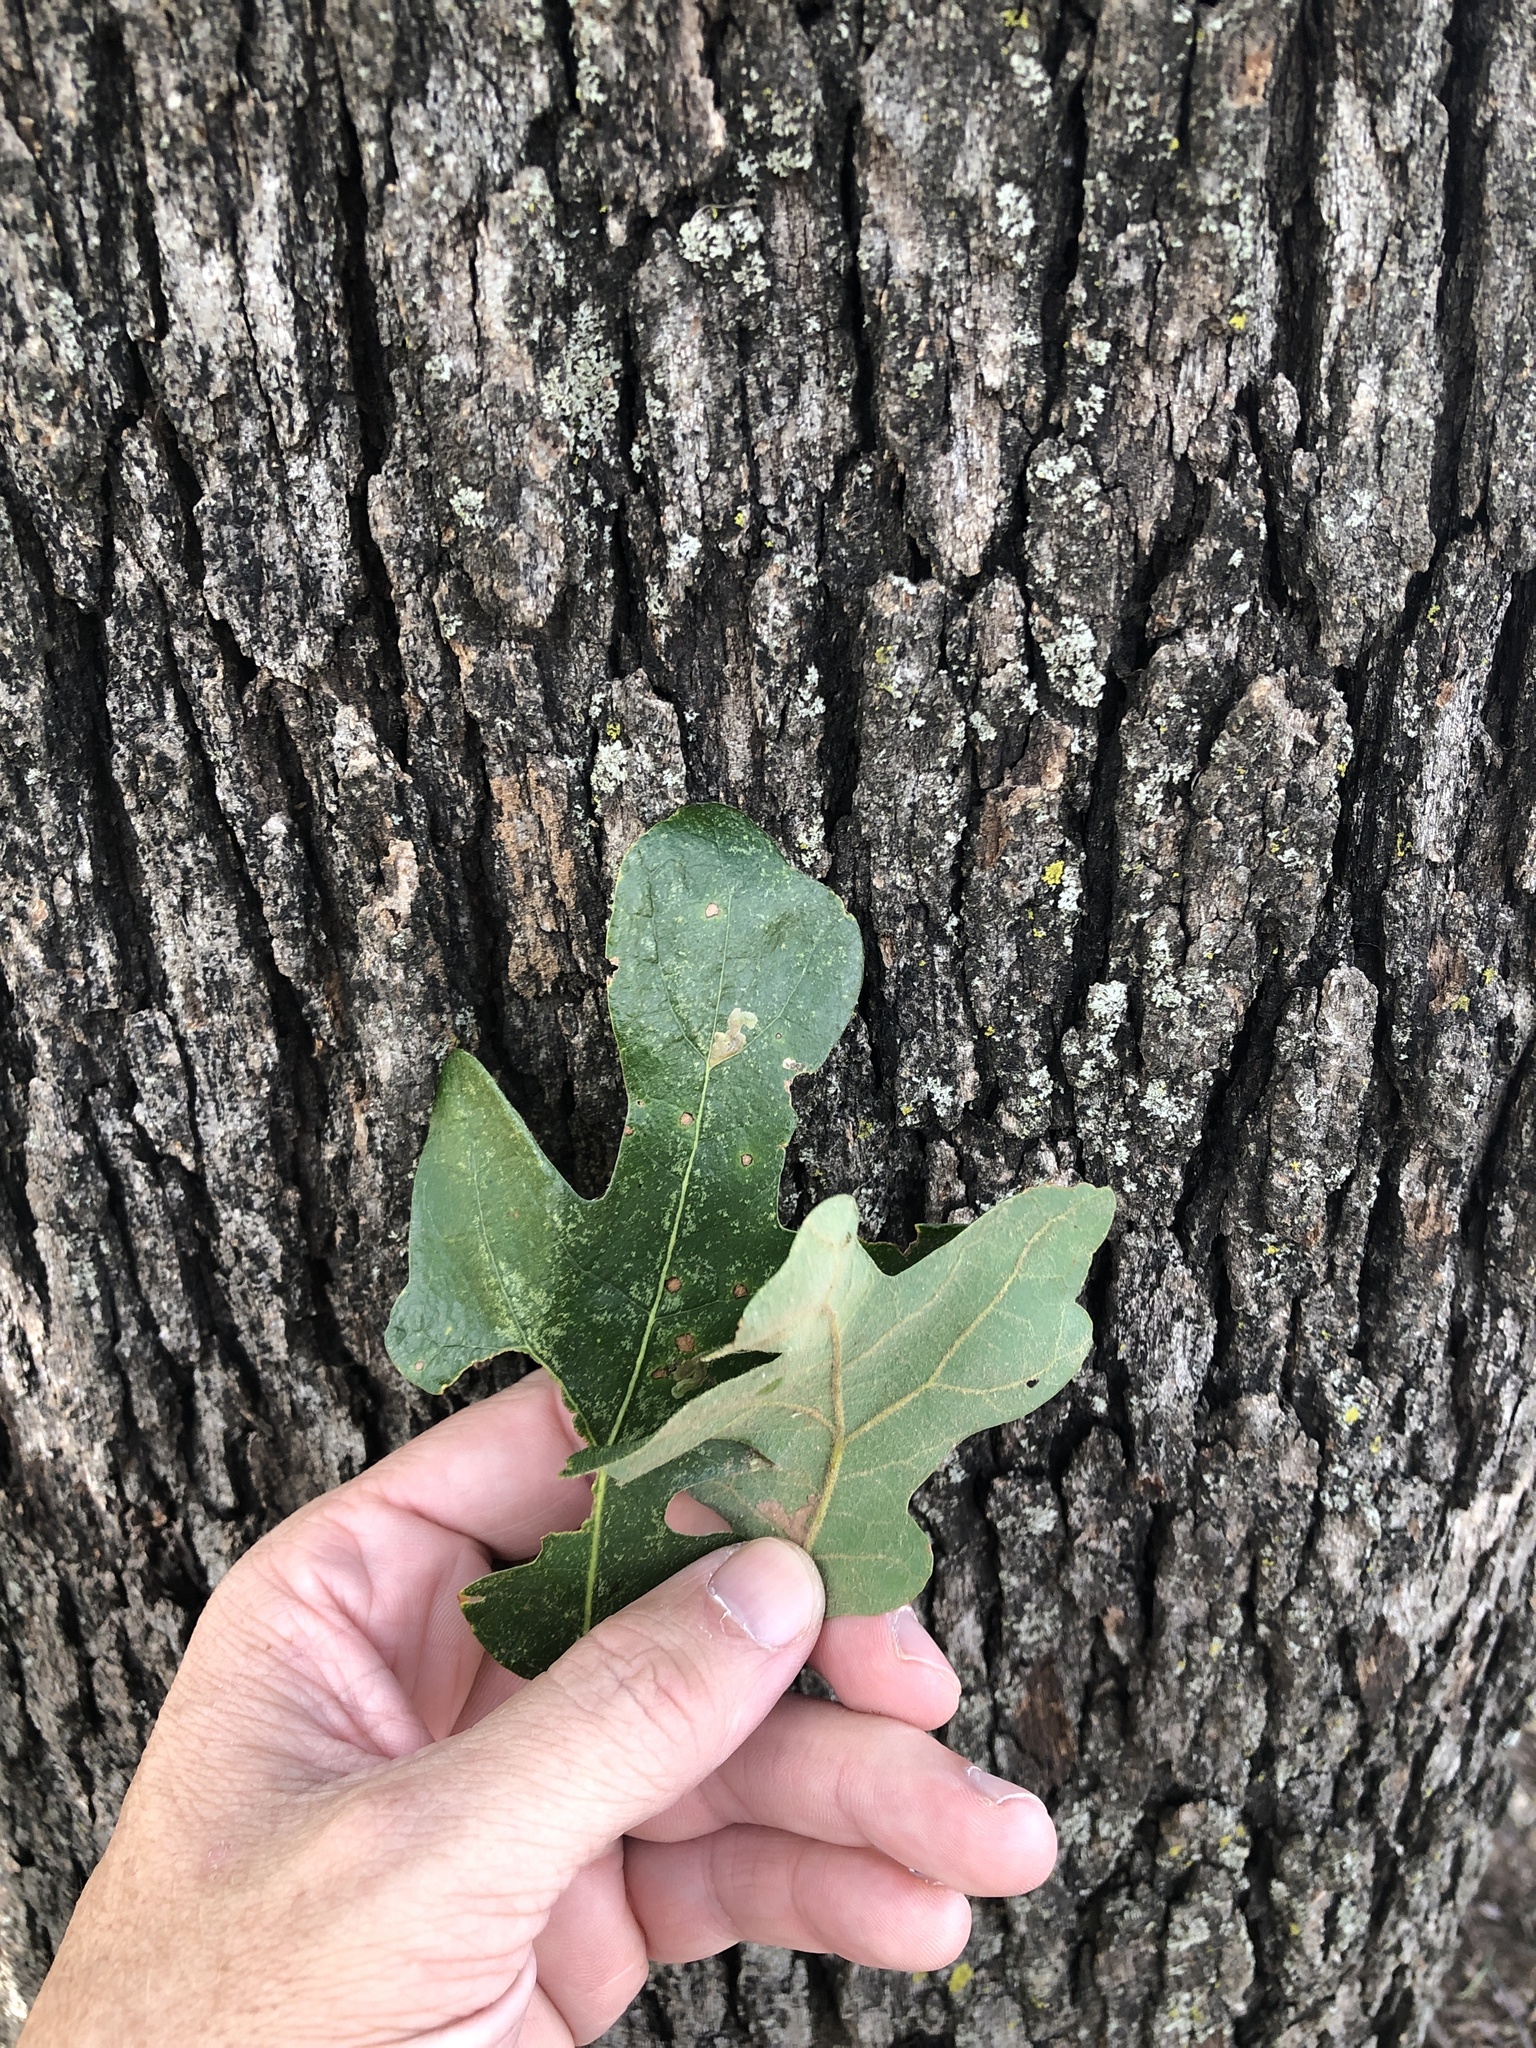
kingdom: Plantae
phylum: Tracheophyta
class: Magnoliopsida
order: Fagales
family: Fagaceae
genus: Quercus
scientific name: Quercus stellata
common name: Post oak
